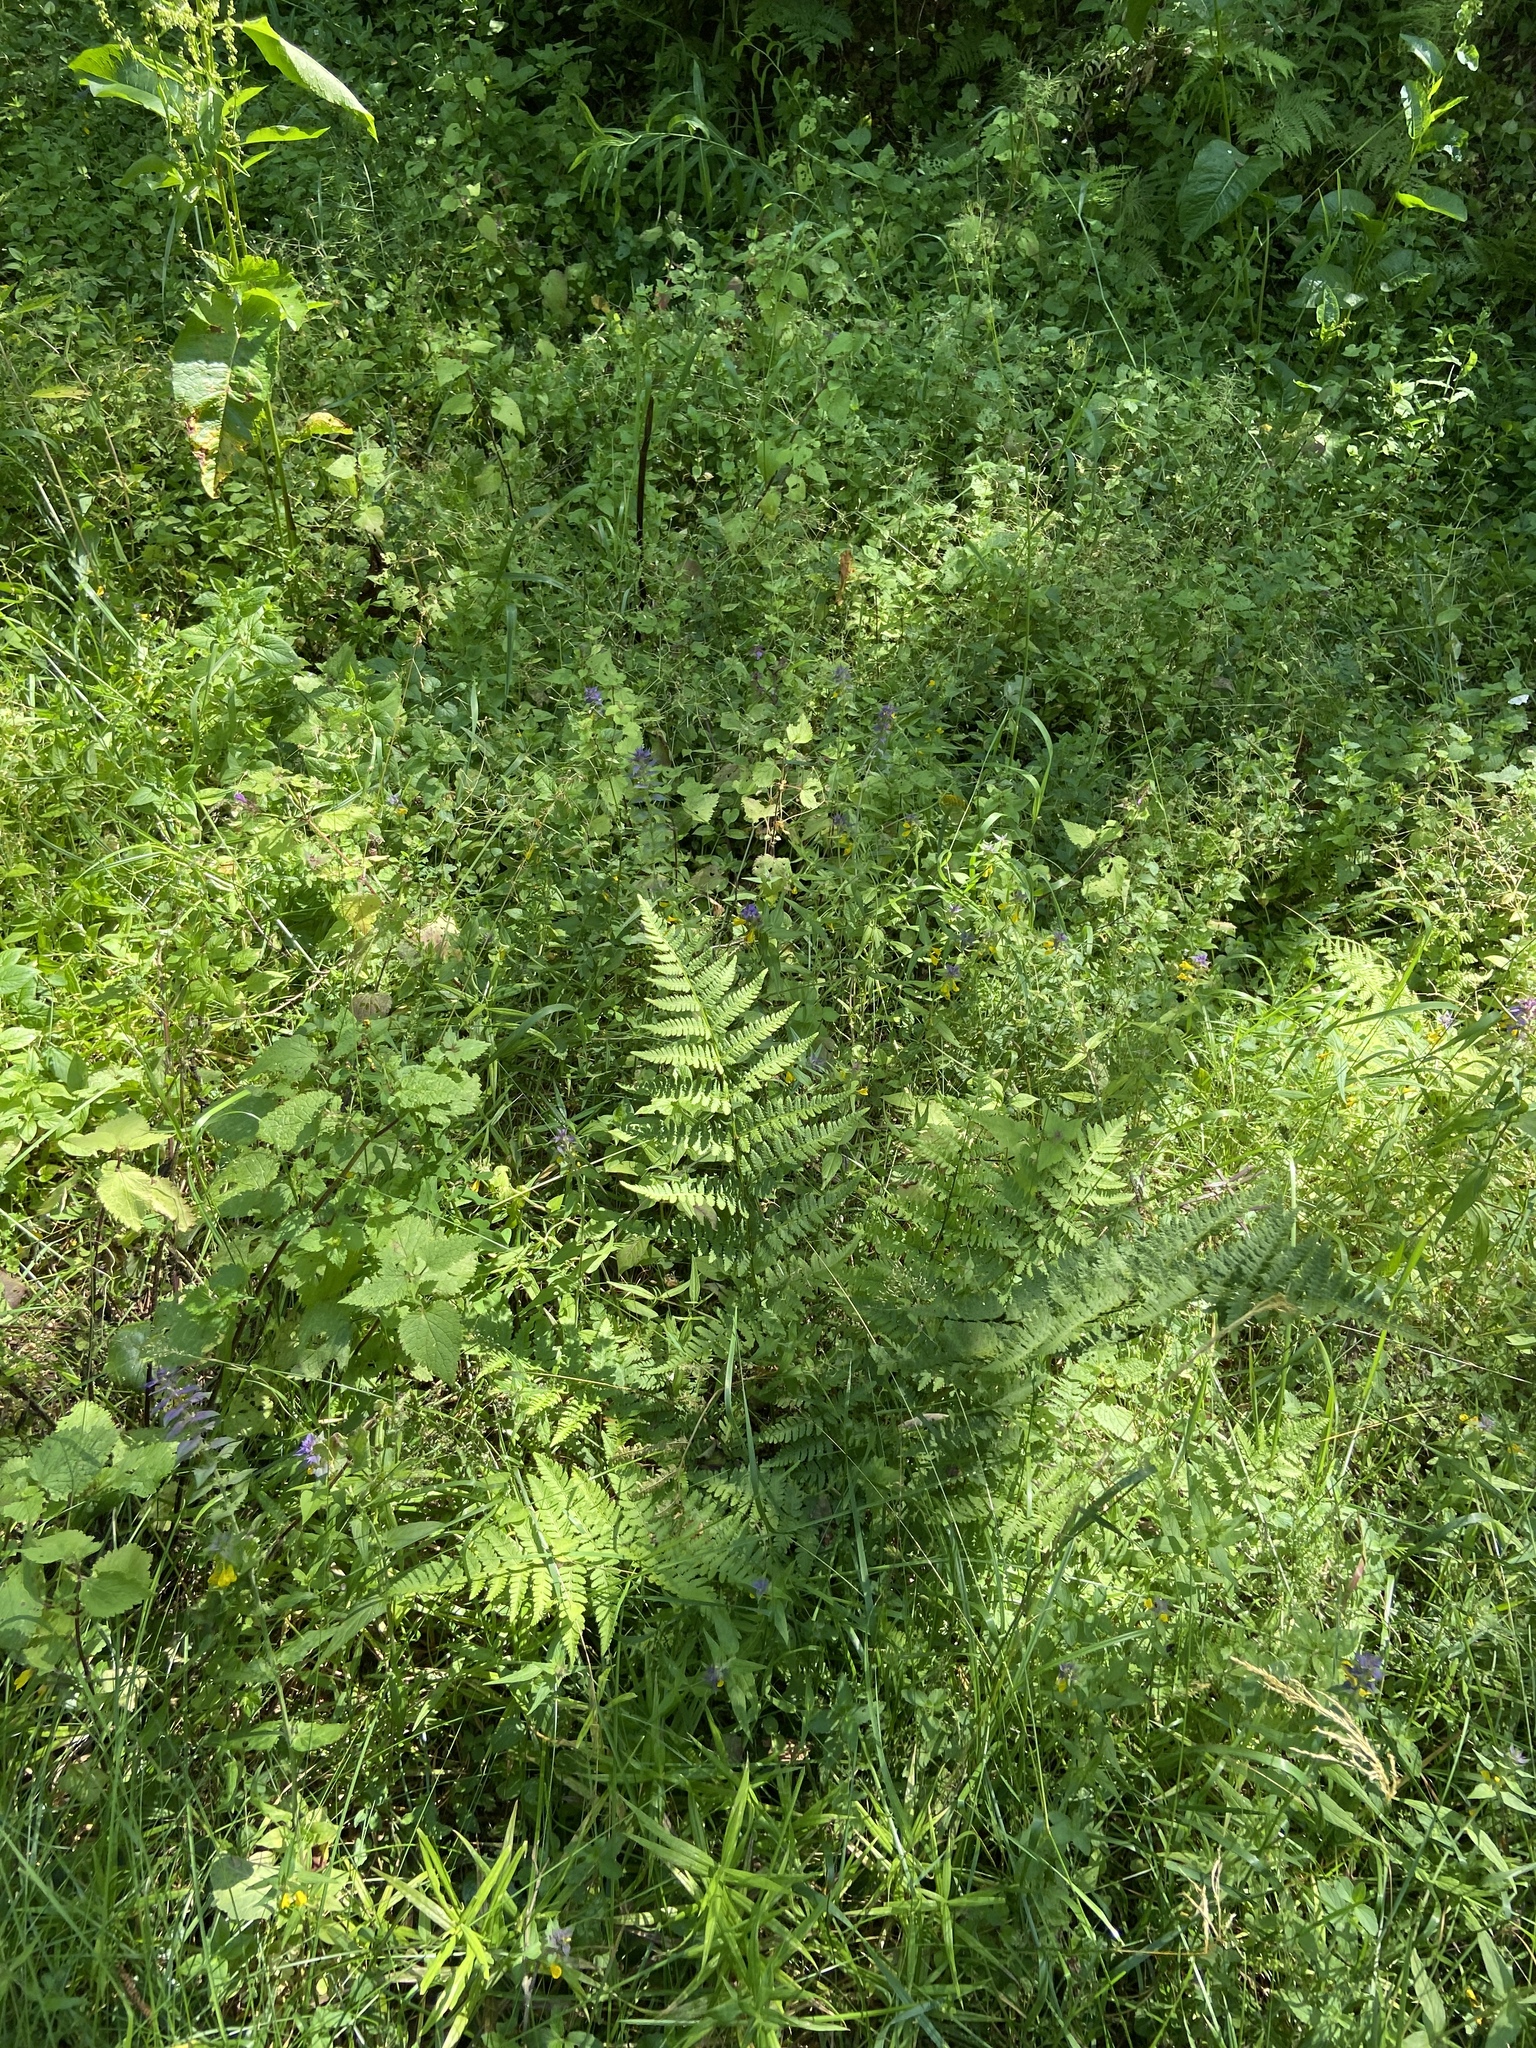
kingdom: Plantae
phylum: Tracheophyta
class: Polypodiopsida
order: Polypodiales
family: Dryopteridaceae
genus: Dryopteris
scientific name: Dryopteris carthusiana
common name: Narrow buckler-fern
